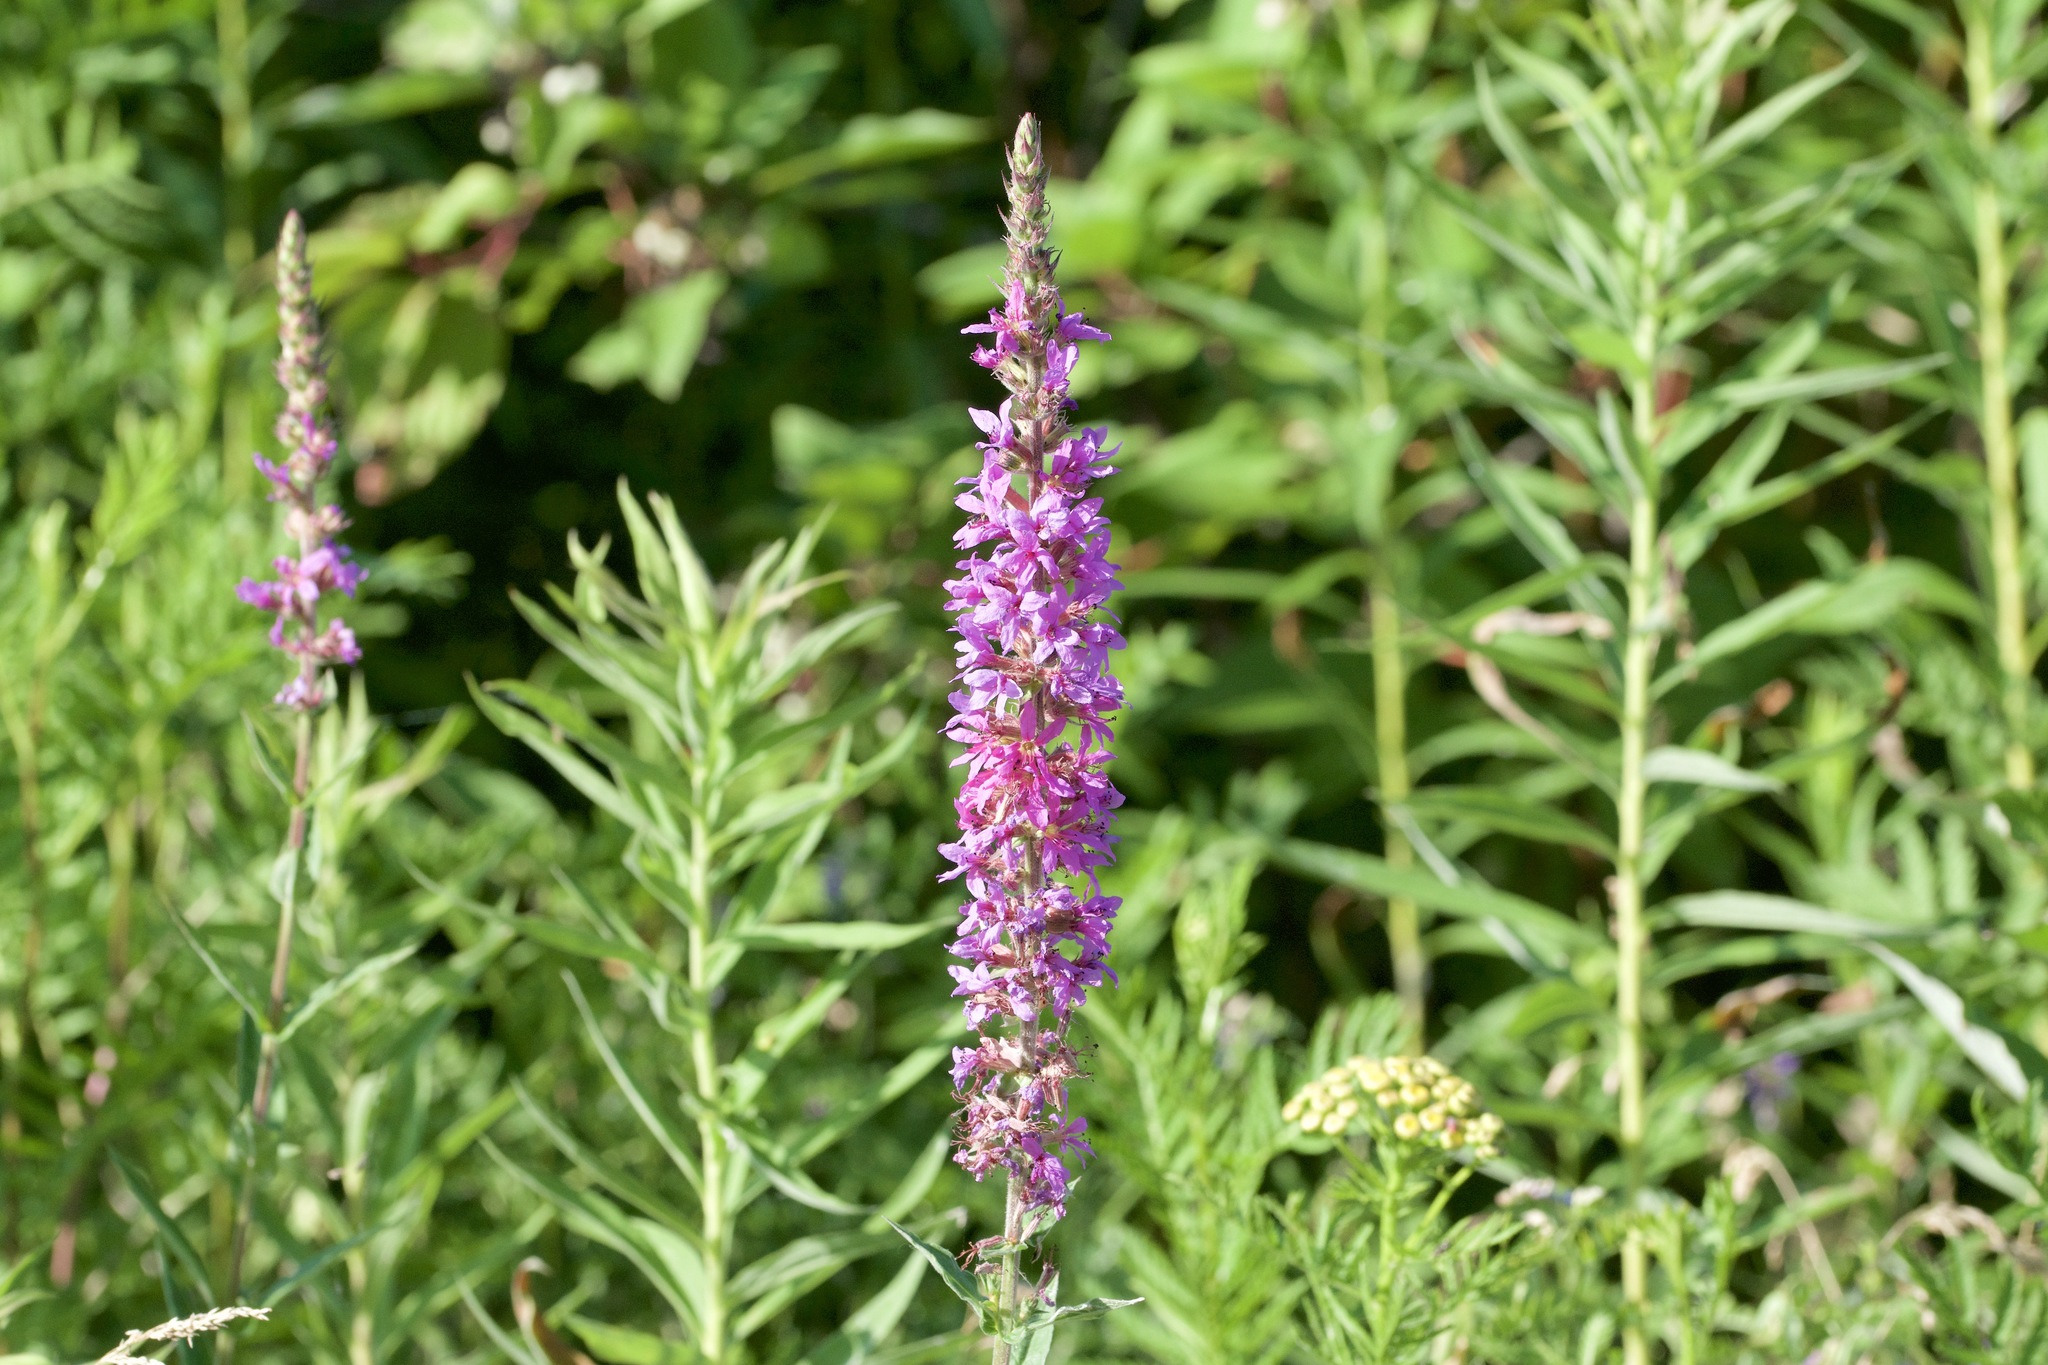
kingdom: Plantae
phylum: Tracheophyta
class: Magnoliopsida
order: Myrtales
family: Lythraceae
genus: Lythrum
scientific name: Lythrum salicaria
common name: Purple loosestrife
